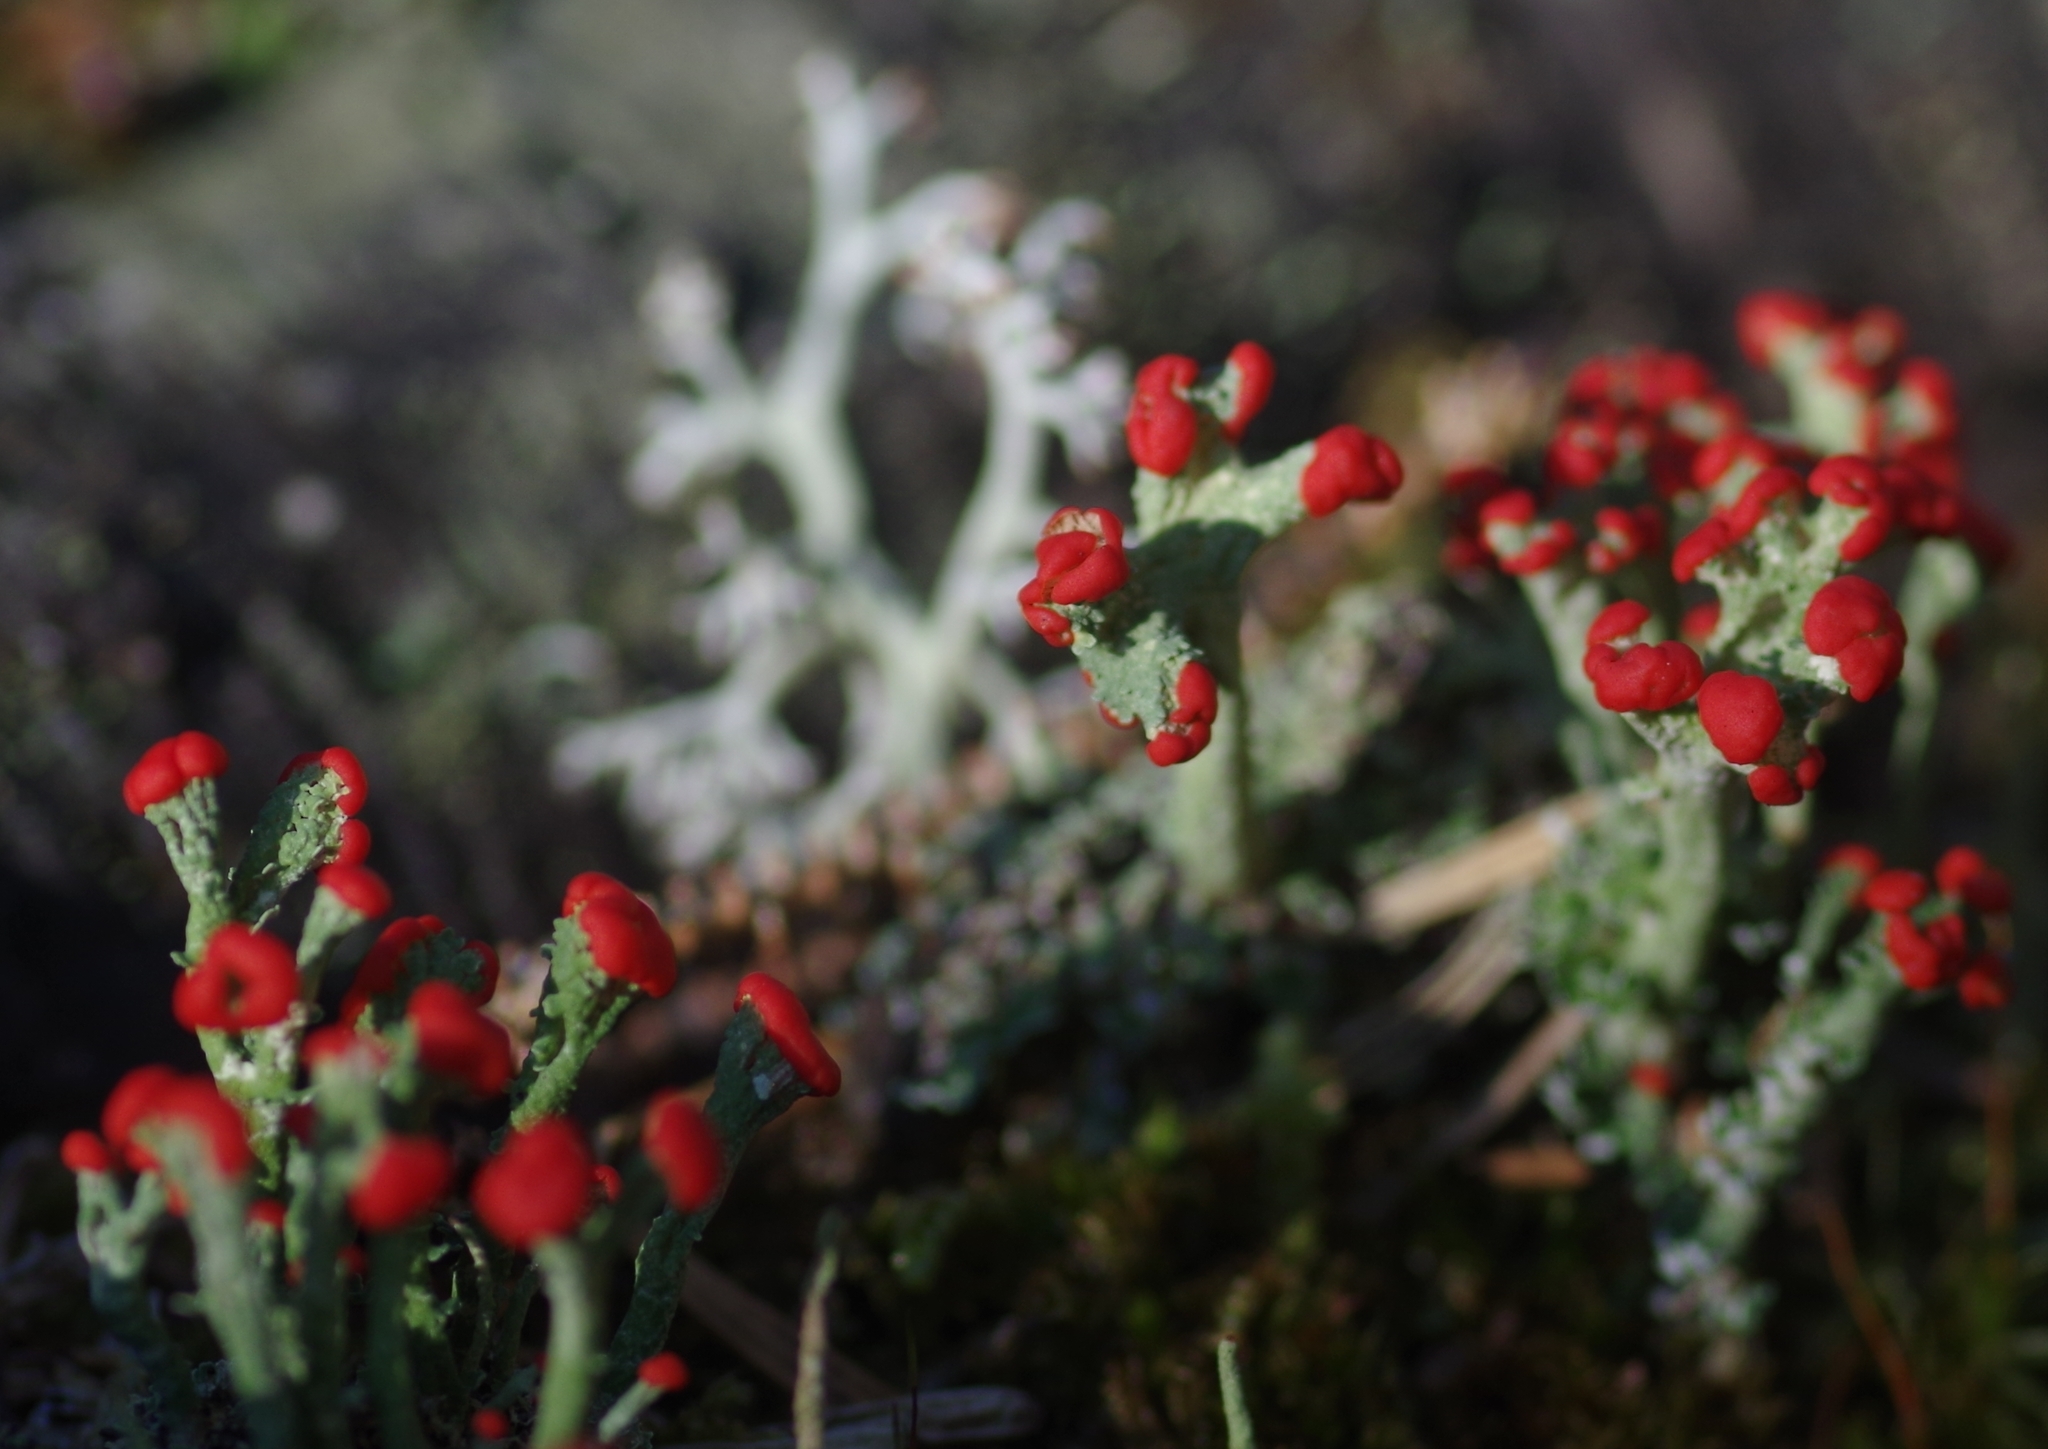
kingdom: Fungi
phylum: Ascomycota
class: Lecanoromycetes
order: Lecanorales
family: Cladoniaceae
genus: Cladonia
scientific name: Cladonia cristatella
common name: British soldier lichen
